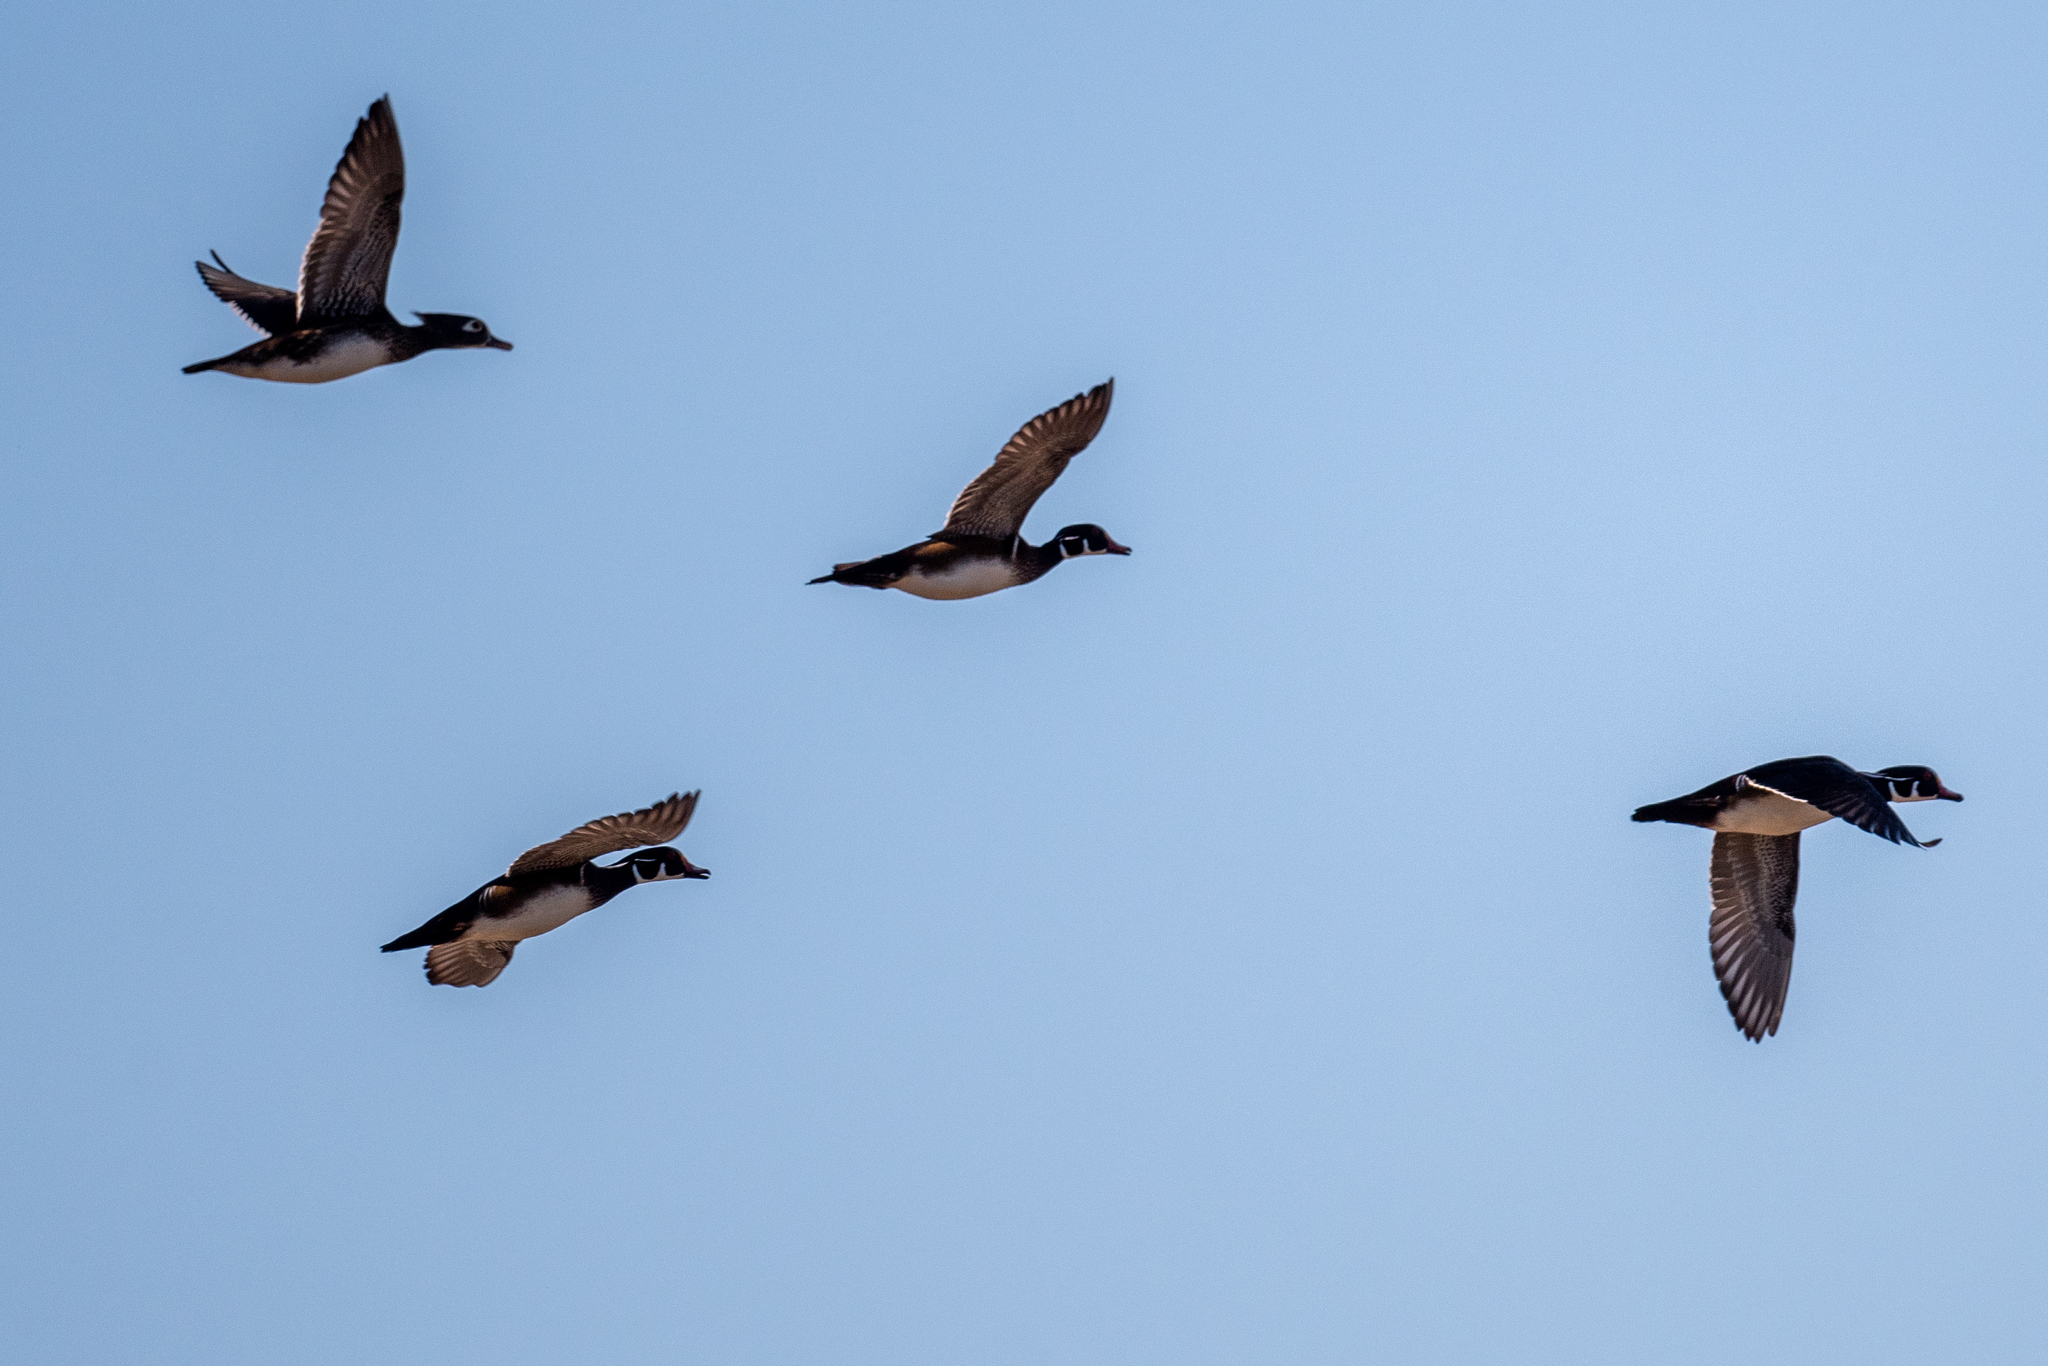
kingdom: Animalia
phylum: Chordata
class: Aves
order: Anseriformes
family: Anatidae
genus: Aix
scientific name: Aix sponsa
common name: Wood duck
